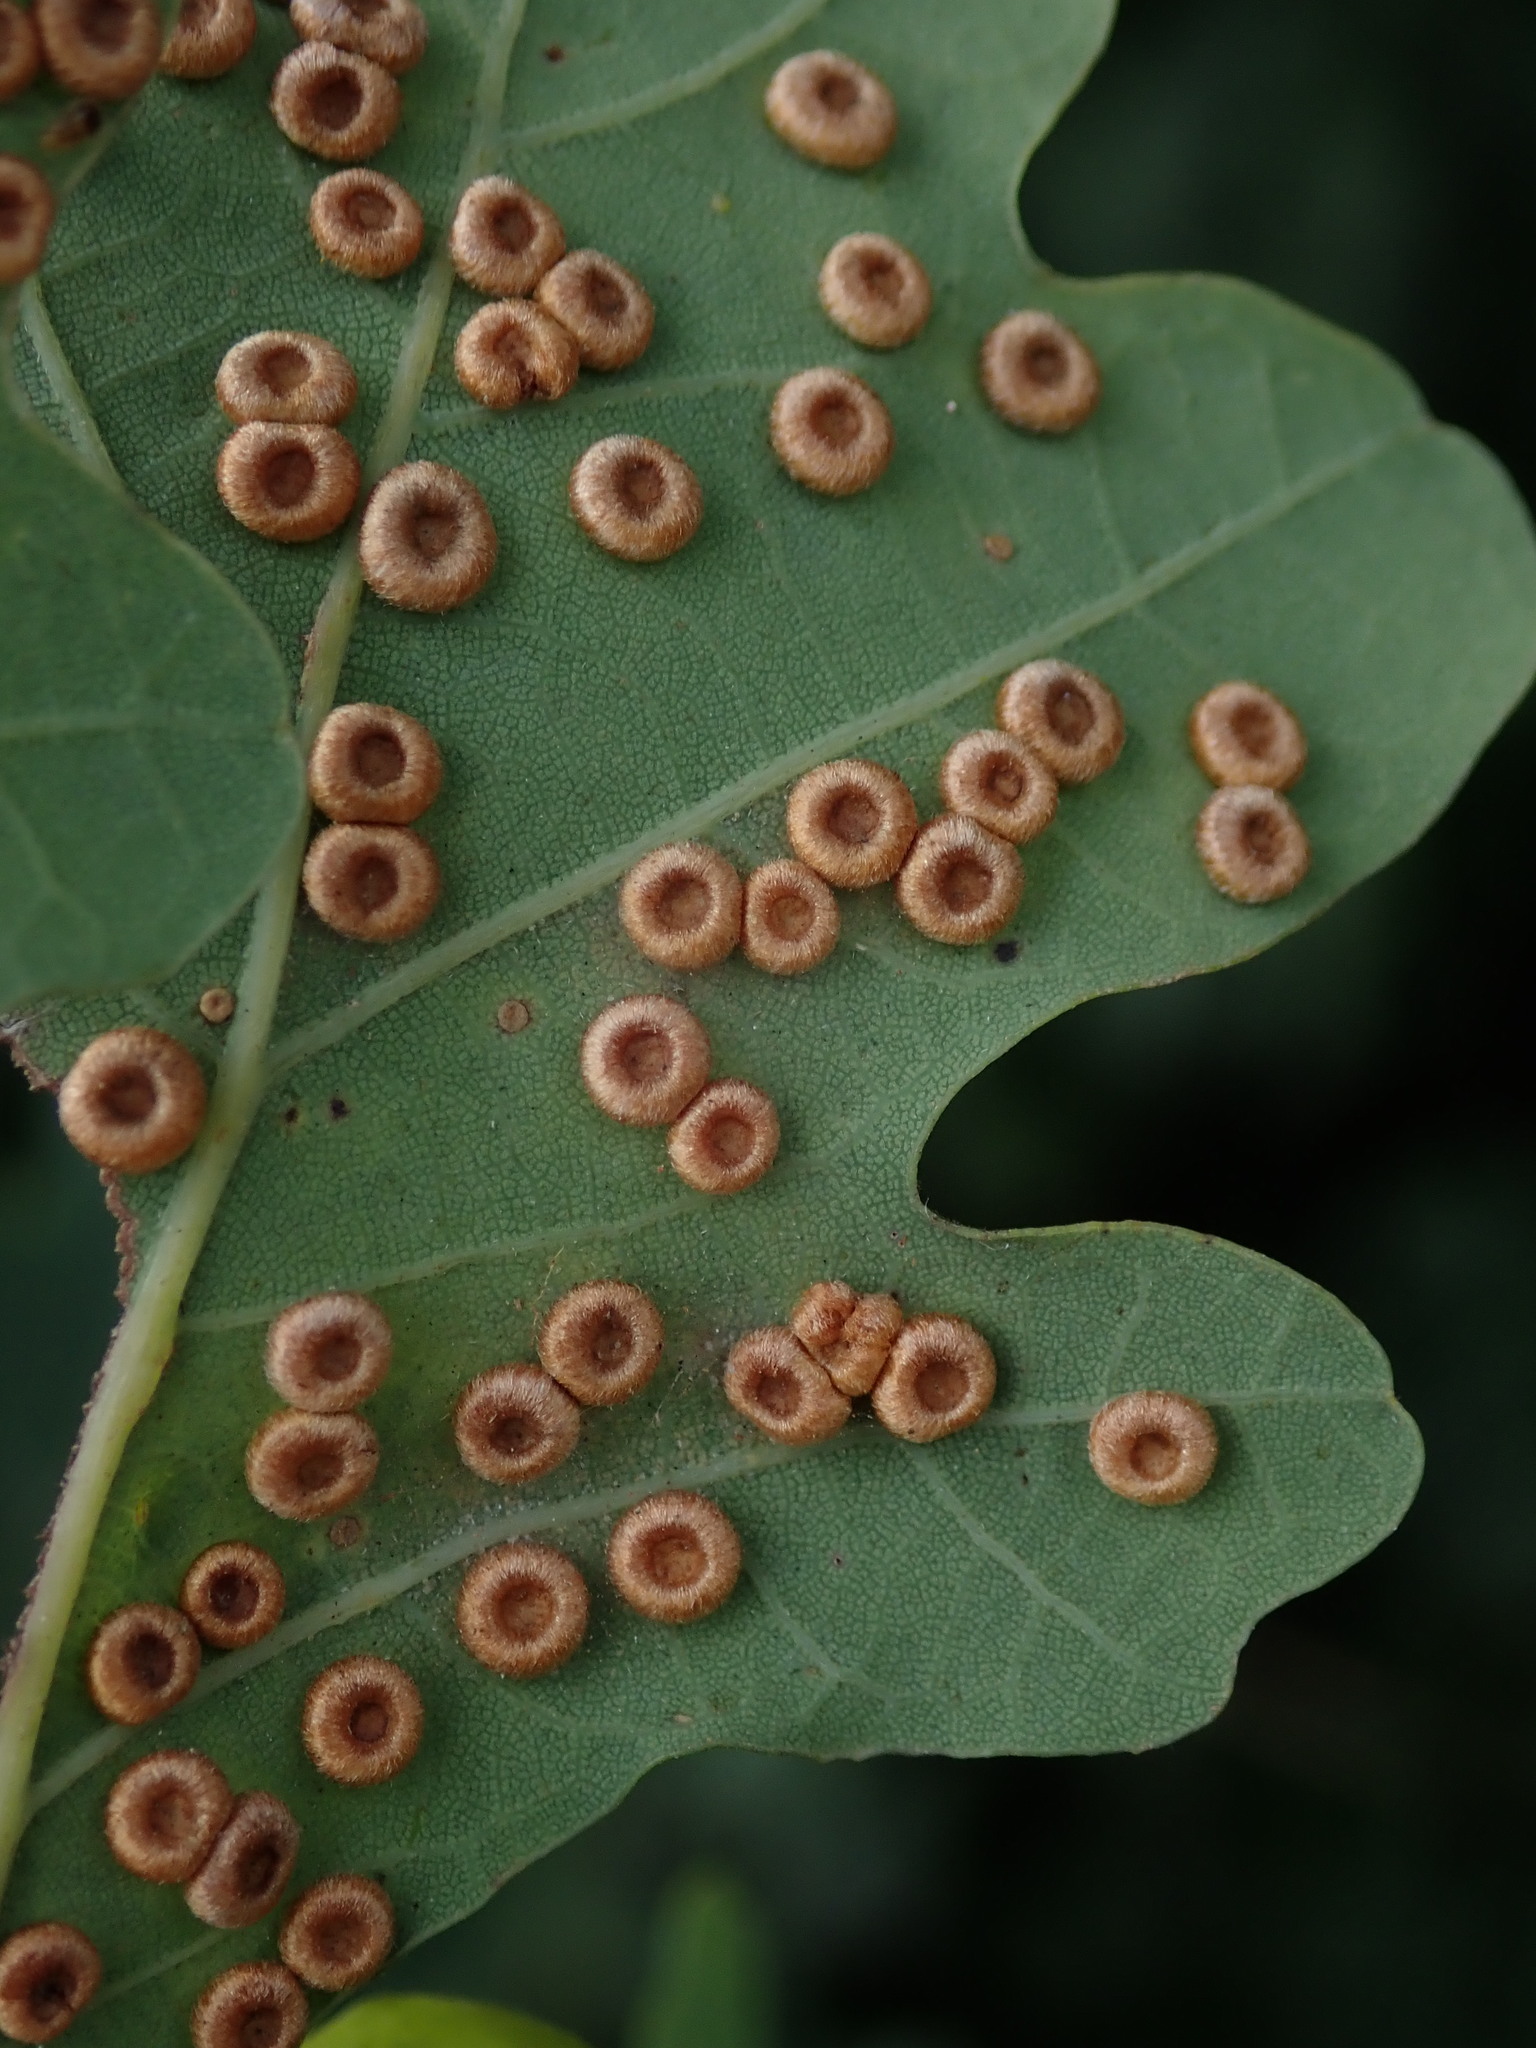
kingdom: Animalia
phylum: Arthropoda
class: Insecta
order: Hymenoptera
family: Cynipidae
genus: Neuroterus
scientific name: Neuroterus numismalis
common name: Silk-button spangle gall
